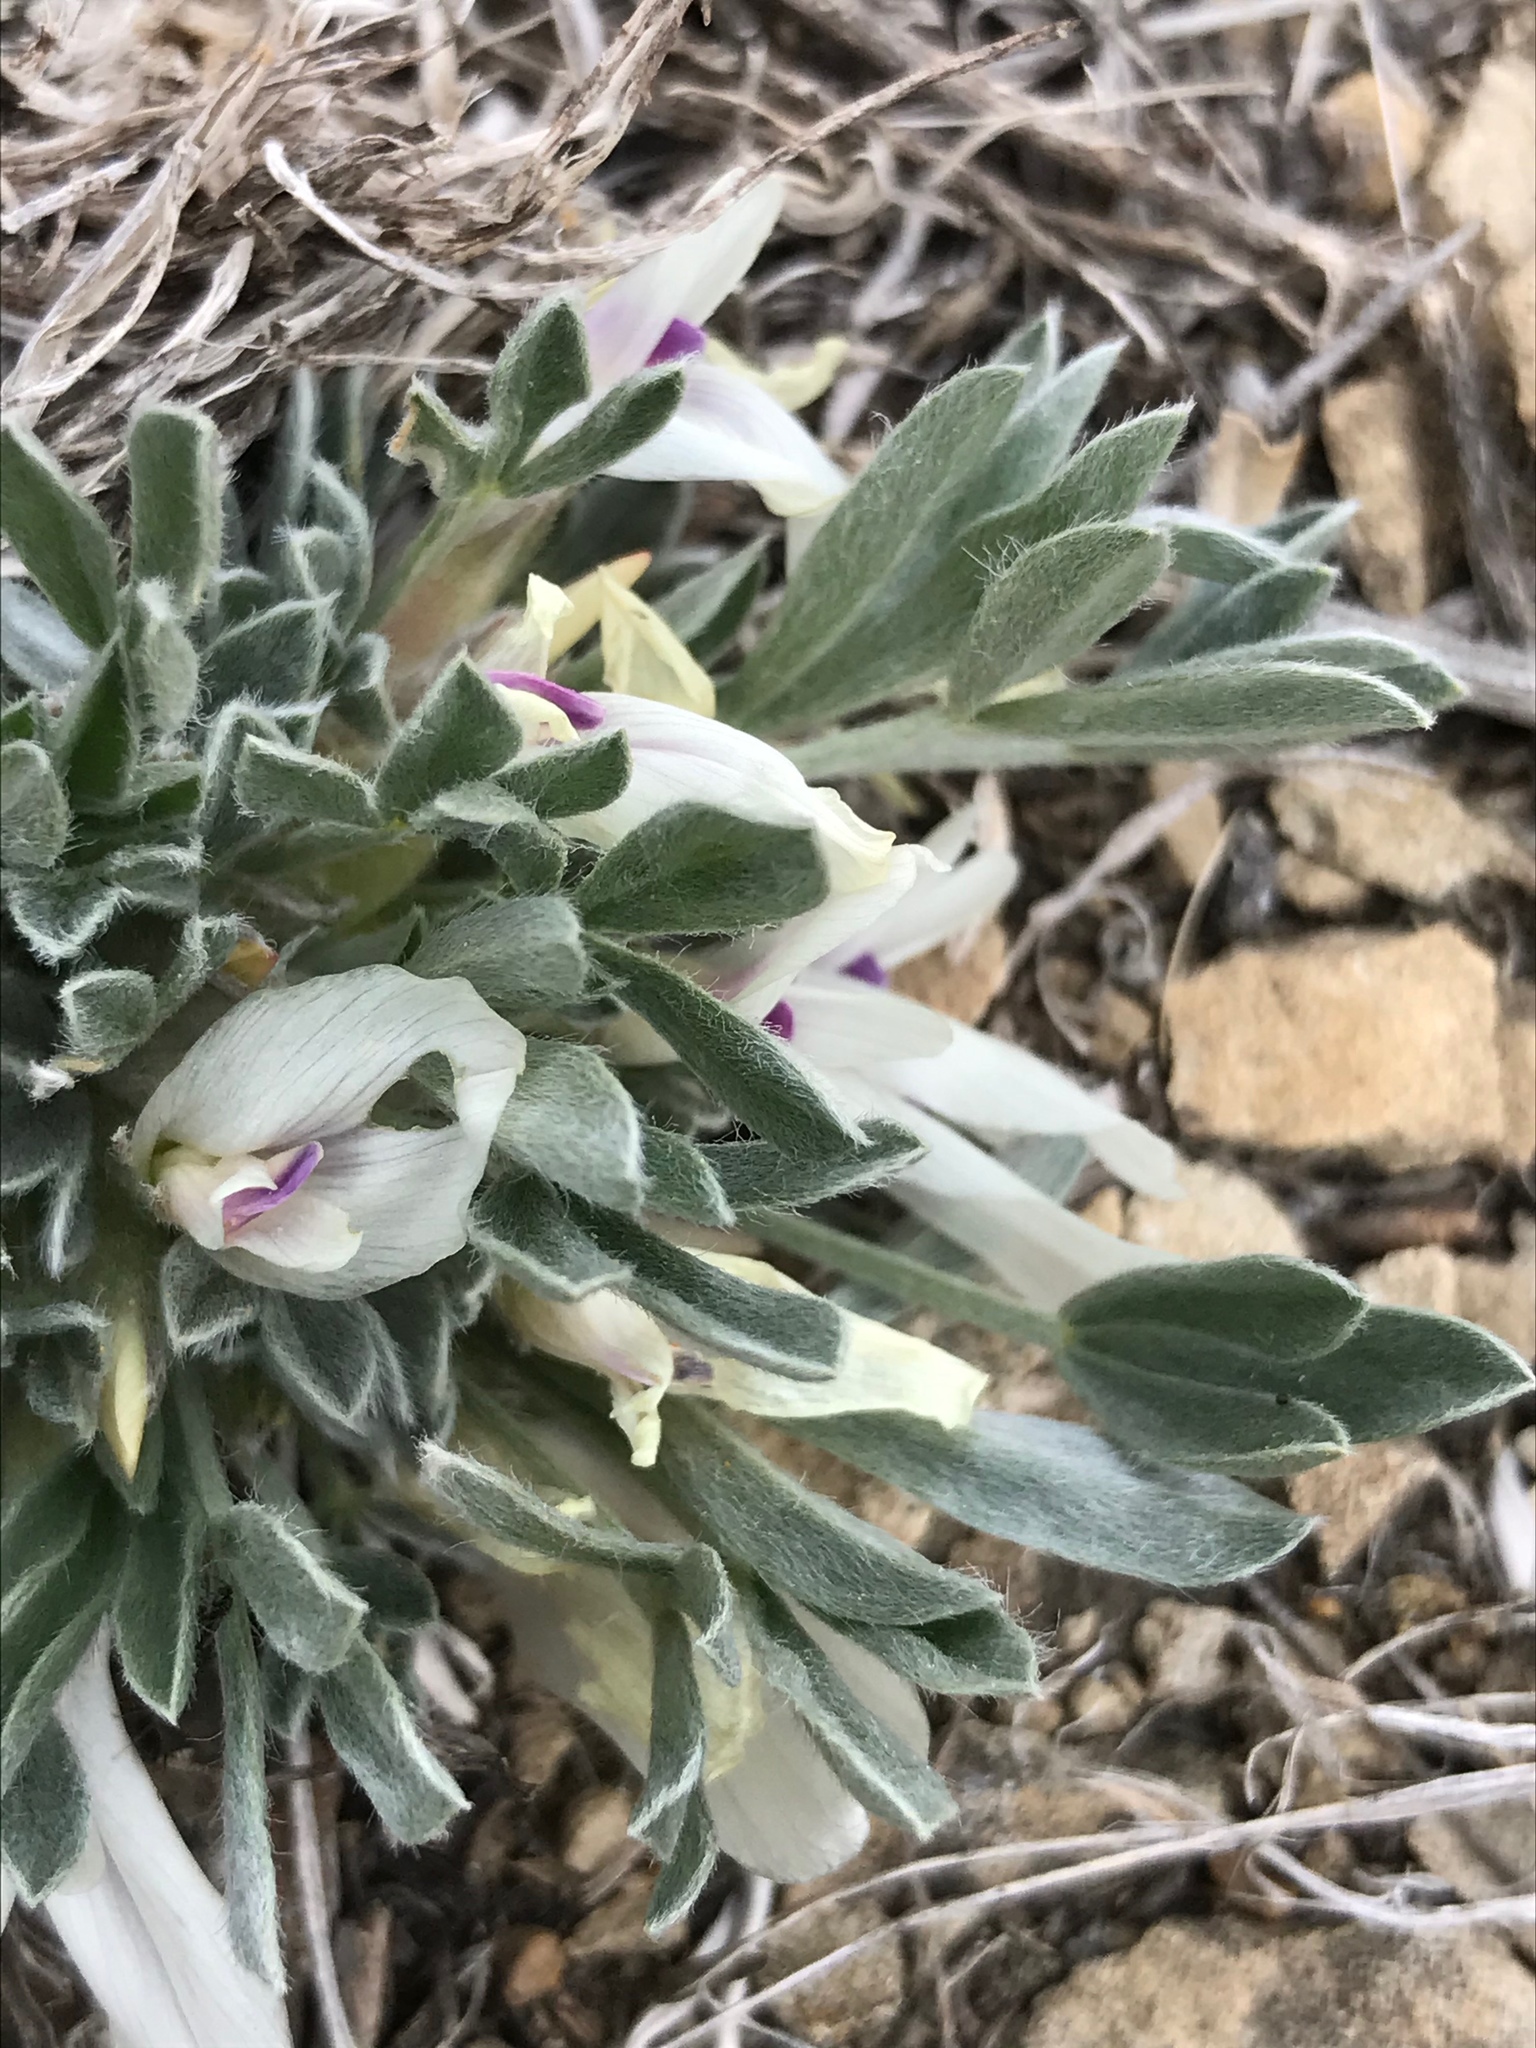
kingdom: Plantae
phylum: Tracheophyta
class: Magnoliopsida
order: Fabales
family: Fabaceae
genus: Astragalus
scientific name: Astragalus gilviflorus
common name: Cushion milk-vetch
